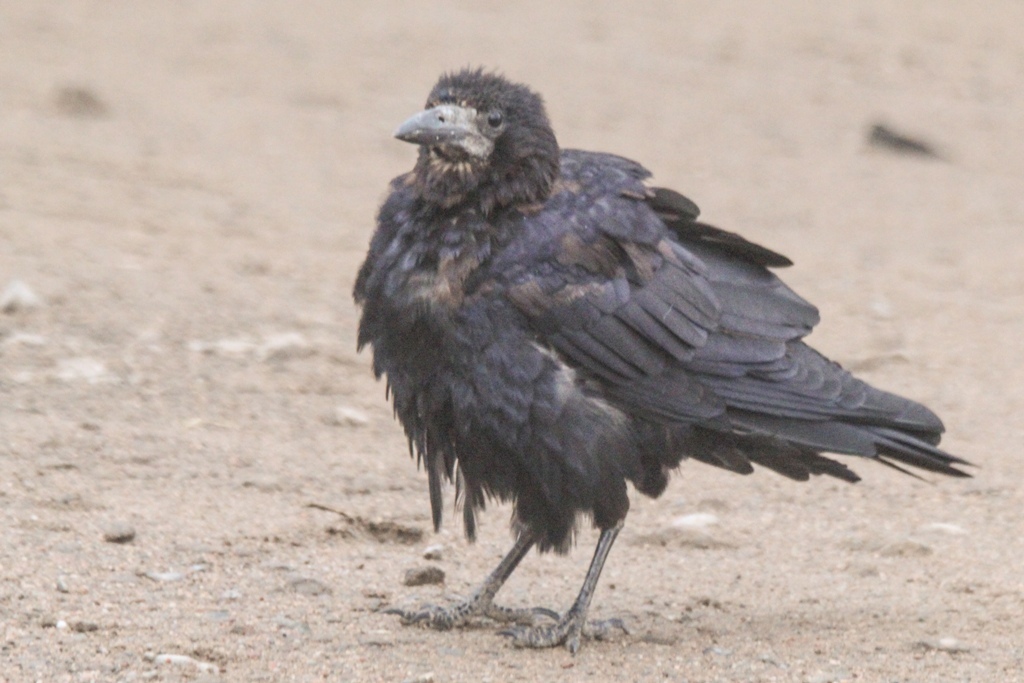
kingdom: Animalia
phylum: Chordata
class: Aves
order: Passeriformes
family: Corvidae
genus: Corvus
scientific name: Corvus frugilegus
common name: Rook
